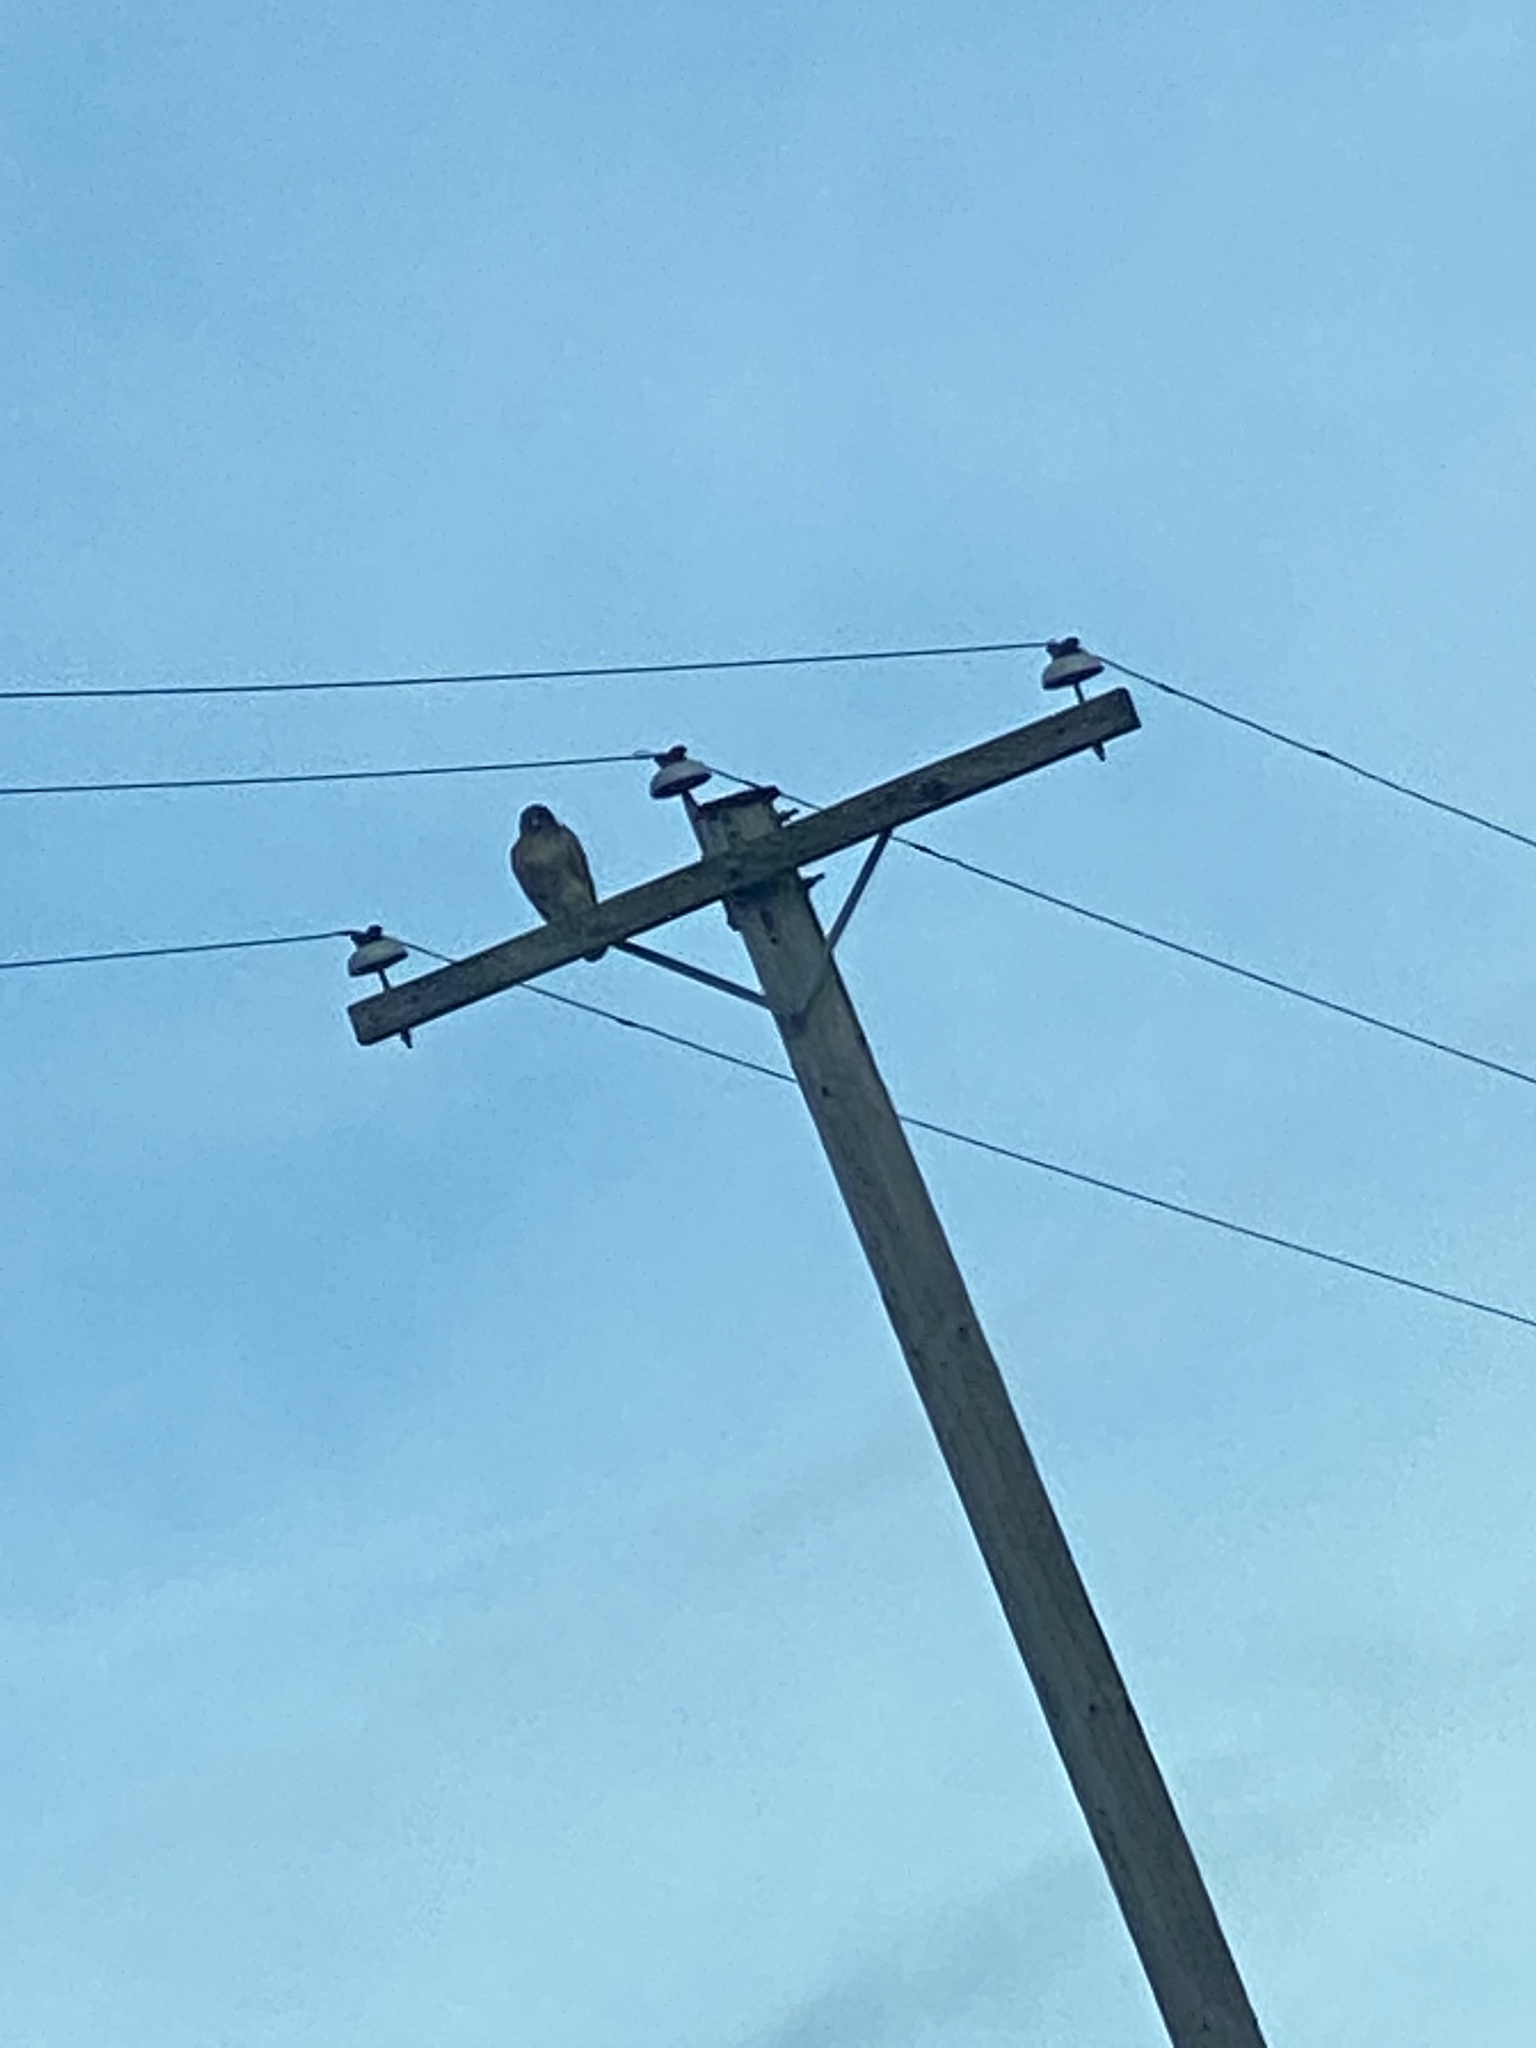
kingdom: Animalia
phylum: Chordata
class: Aves
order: Accipitriformes
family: Accipitridae
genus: Buteo
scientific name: Buteo jamaicensis
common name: Red-tailed hawk
